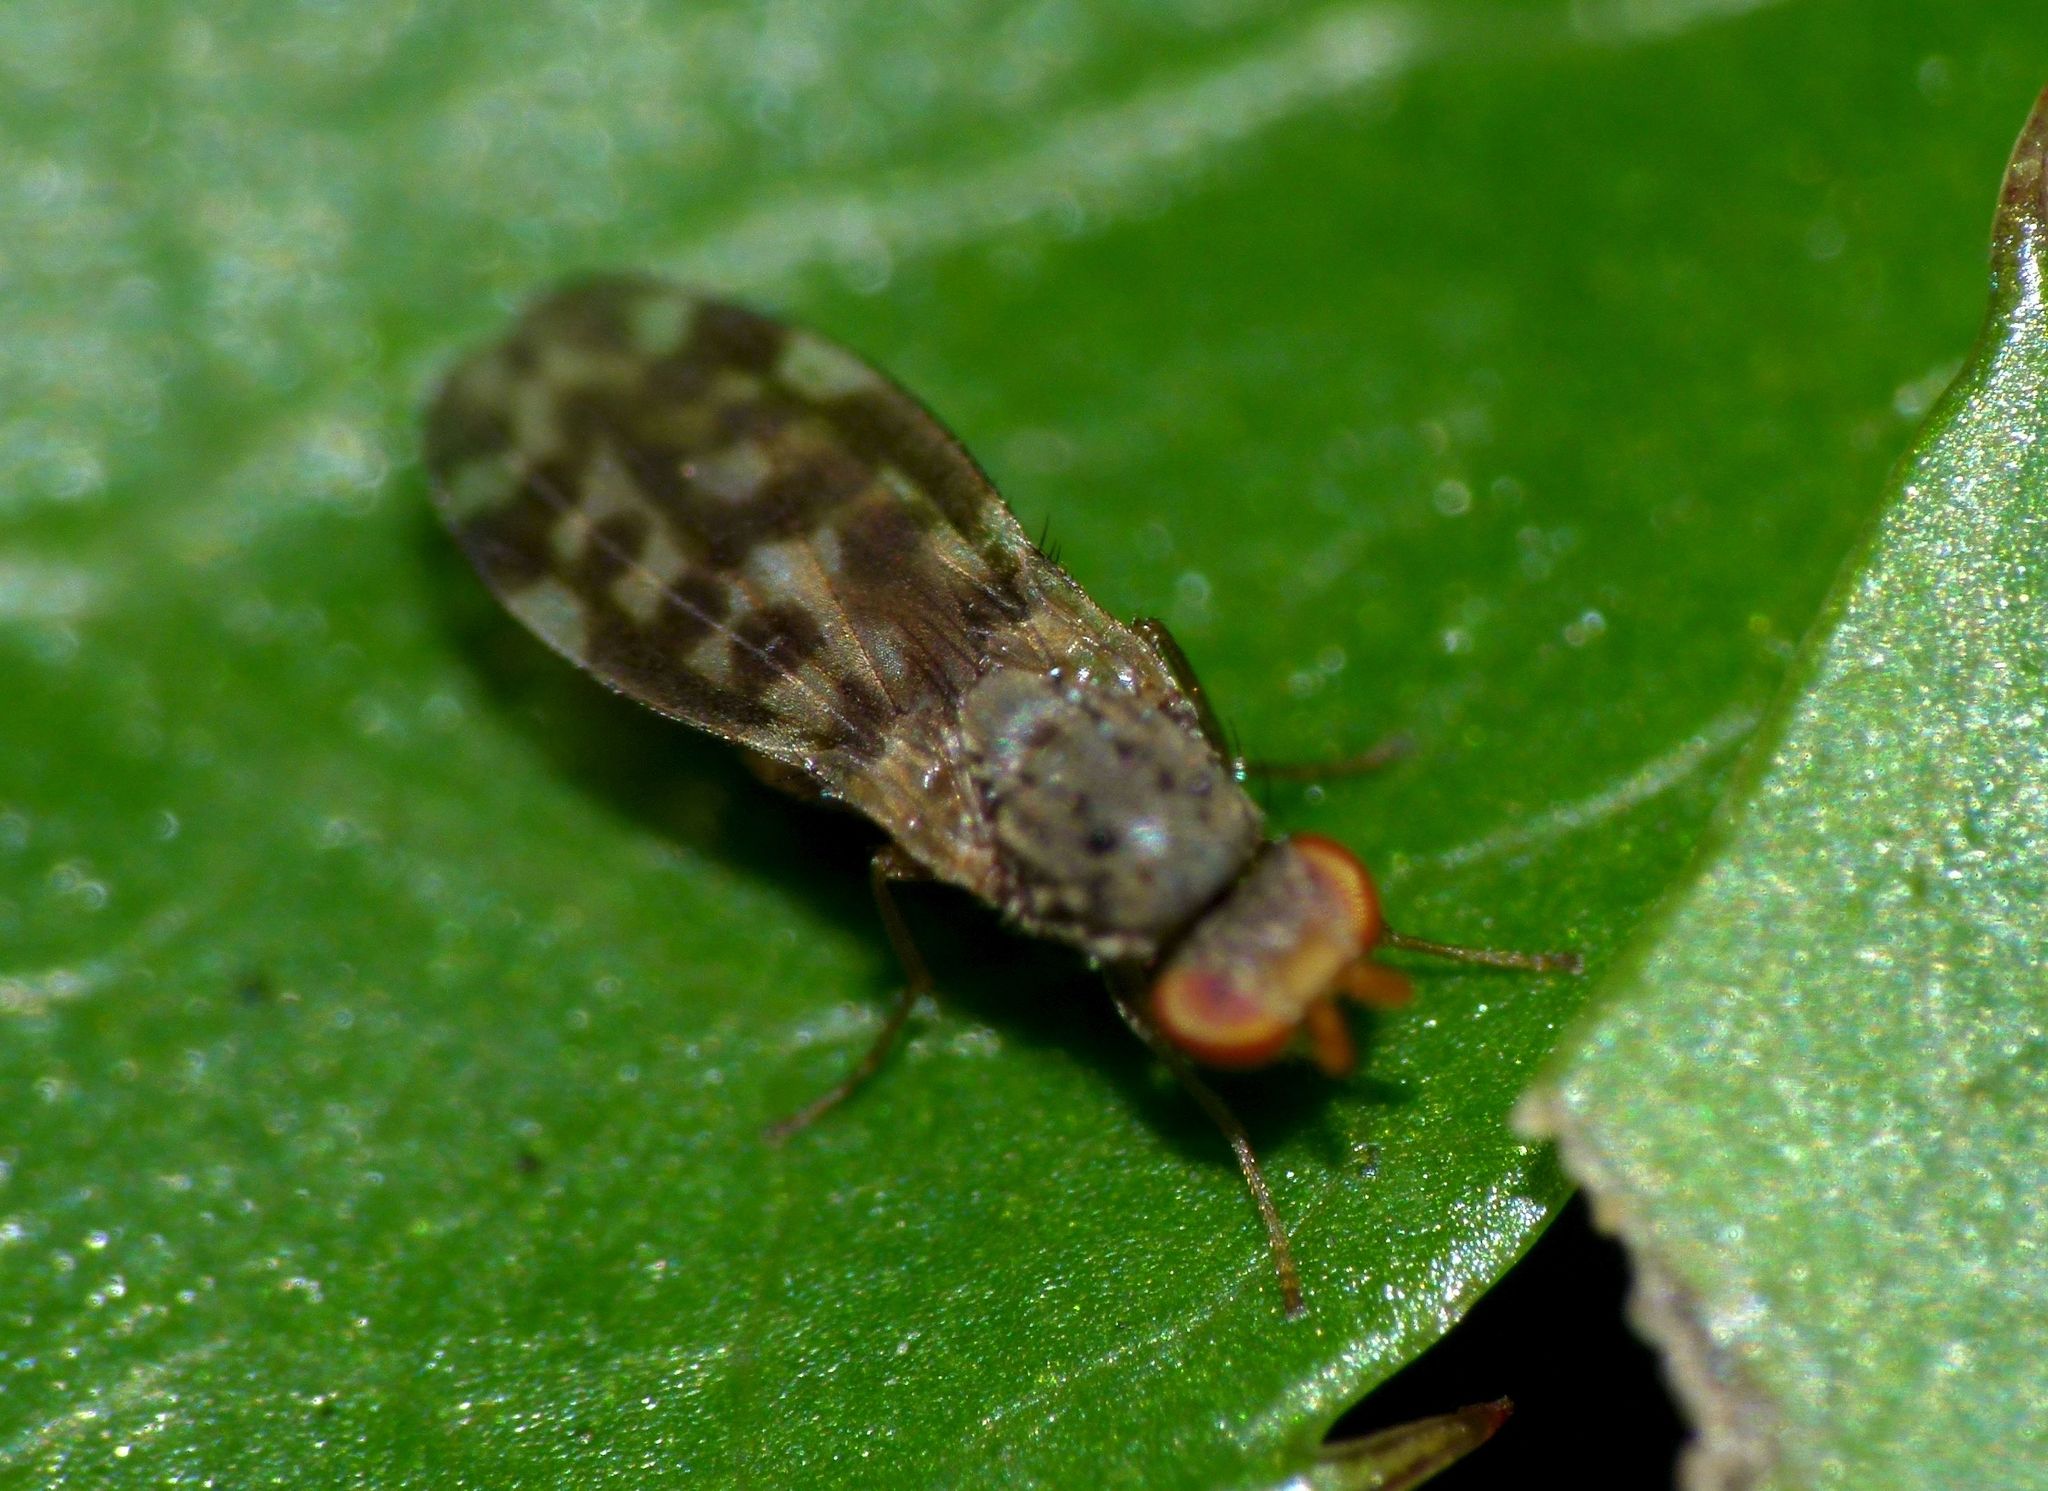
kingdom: Animalia
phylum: Arthropoda
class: Insecta
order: Diptera
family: Heleomyzidae
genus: Aneuria
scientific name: Aneuria bipunctata
